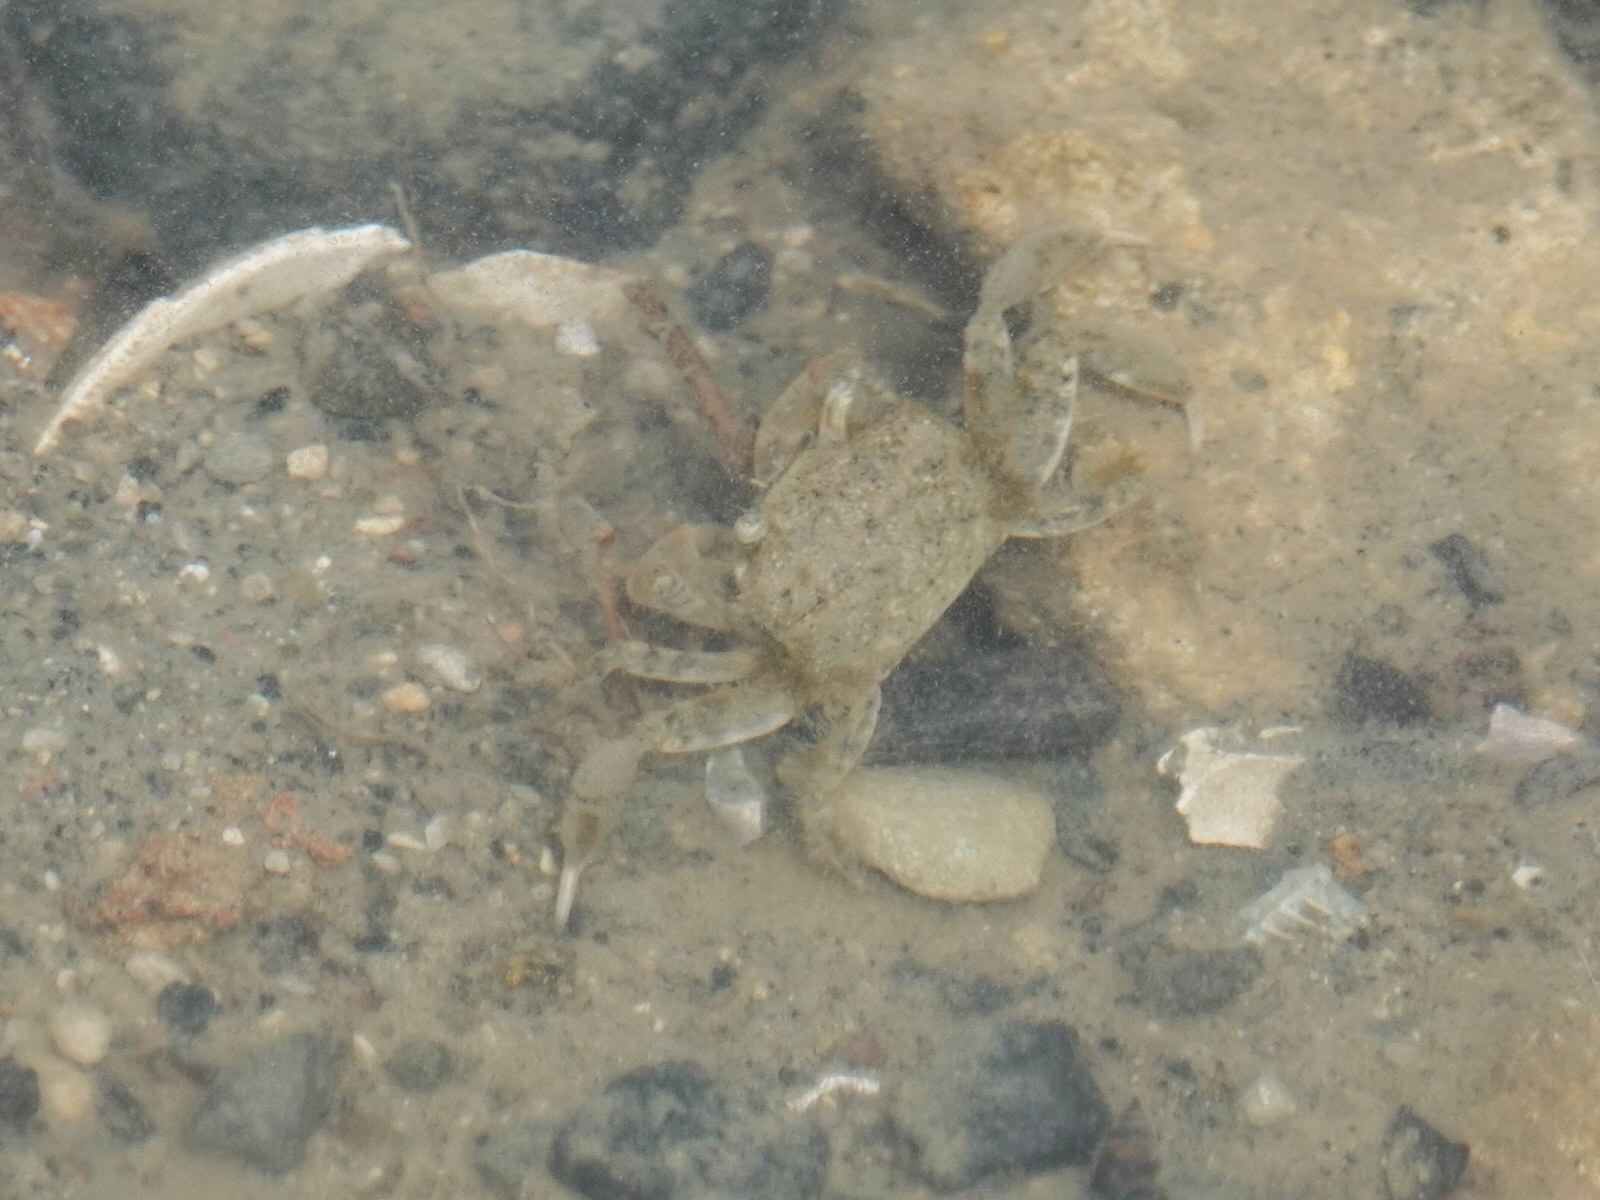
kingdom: Animalia
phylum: Arthropoda
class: Malacostraca
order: Decapoda
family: Varunidae
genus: Austrohelice
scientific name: Austrohelice crassa
